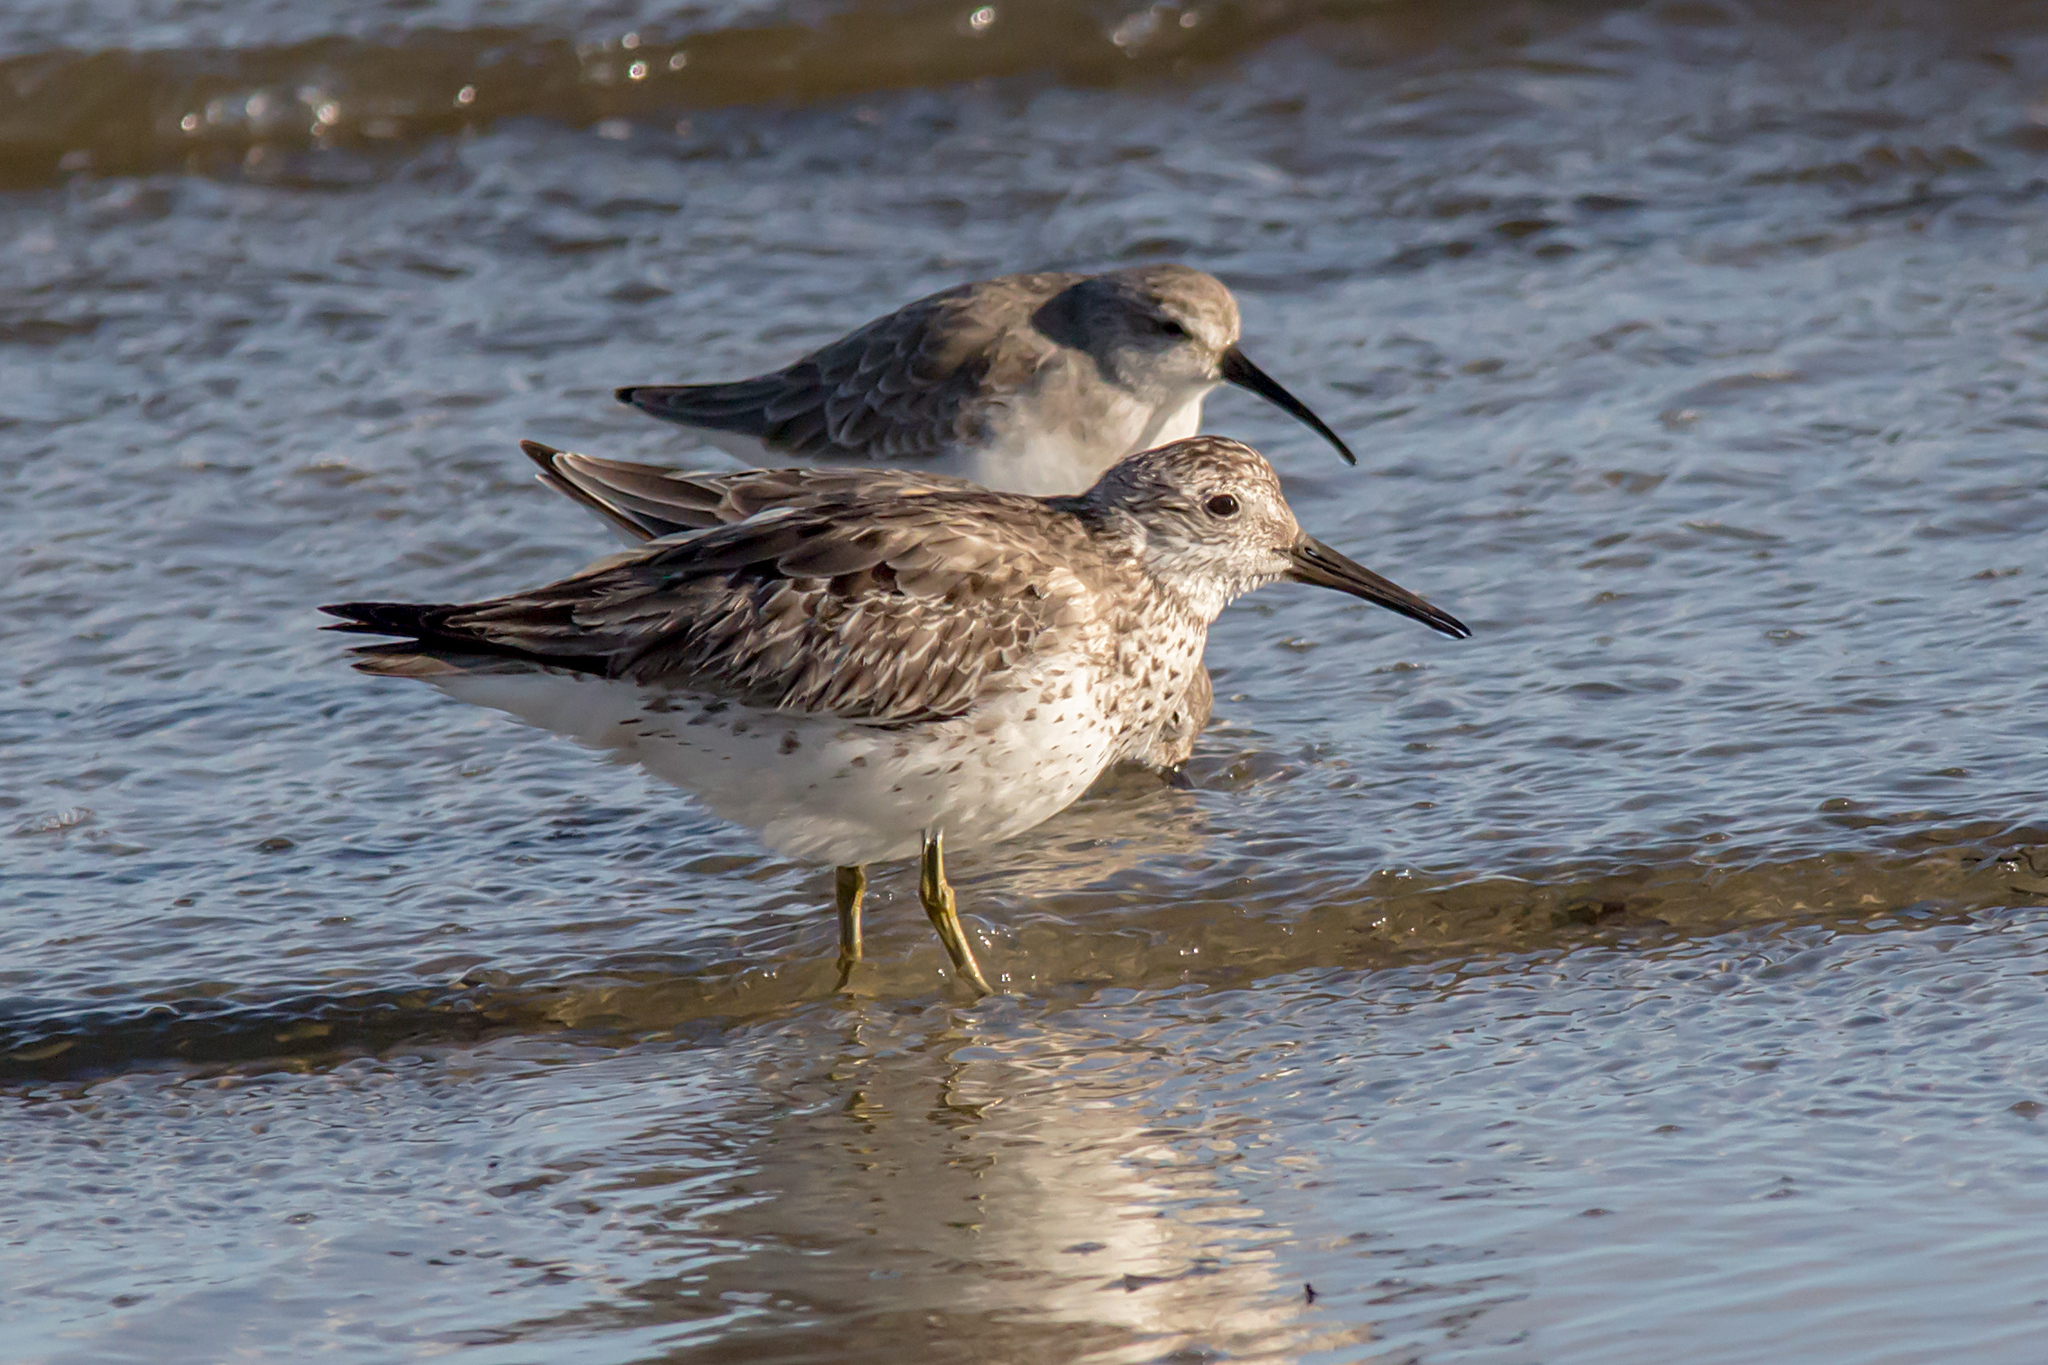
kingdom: Animalia
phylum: Chordata
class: Aves
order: Charadriiformes
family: Scolopacidae
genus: Calidris
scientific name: Calidris tenuirostris
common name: Great knot
